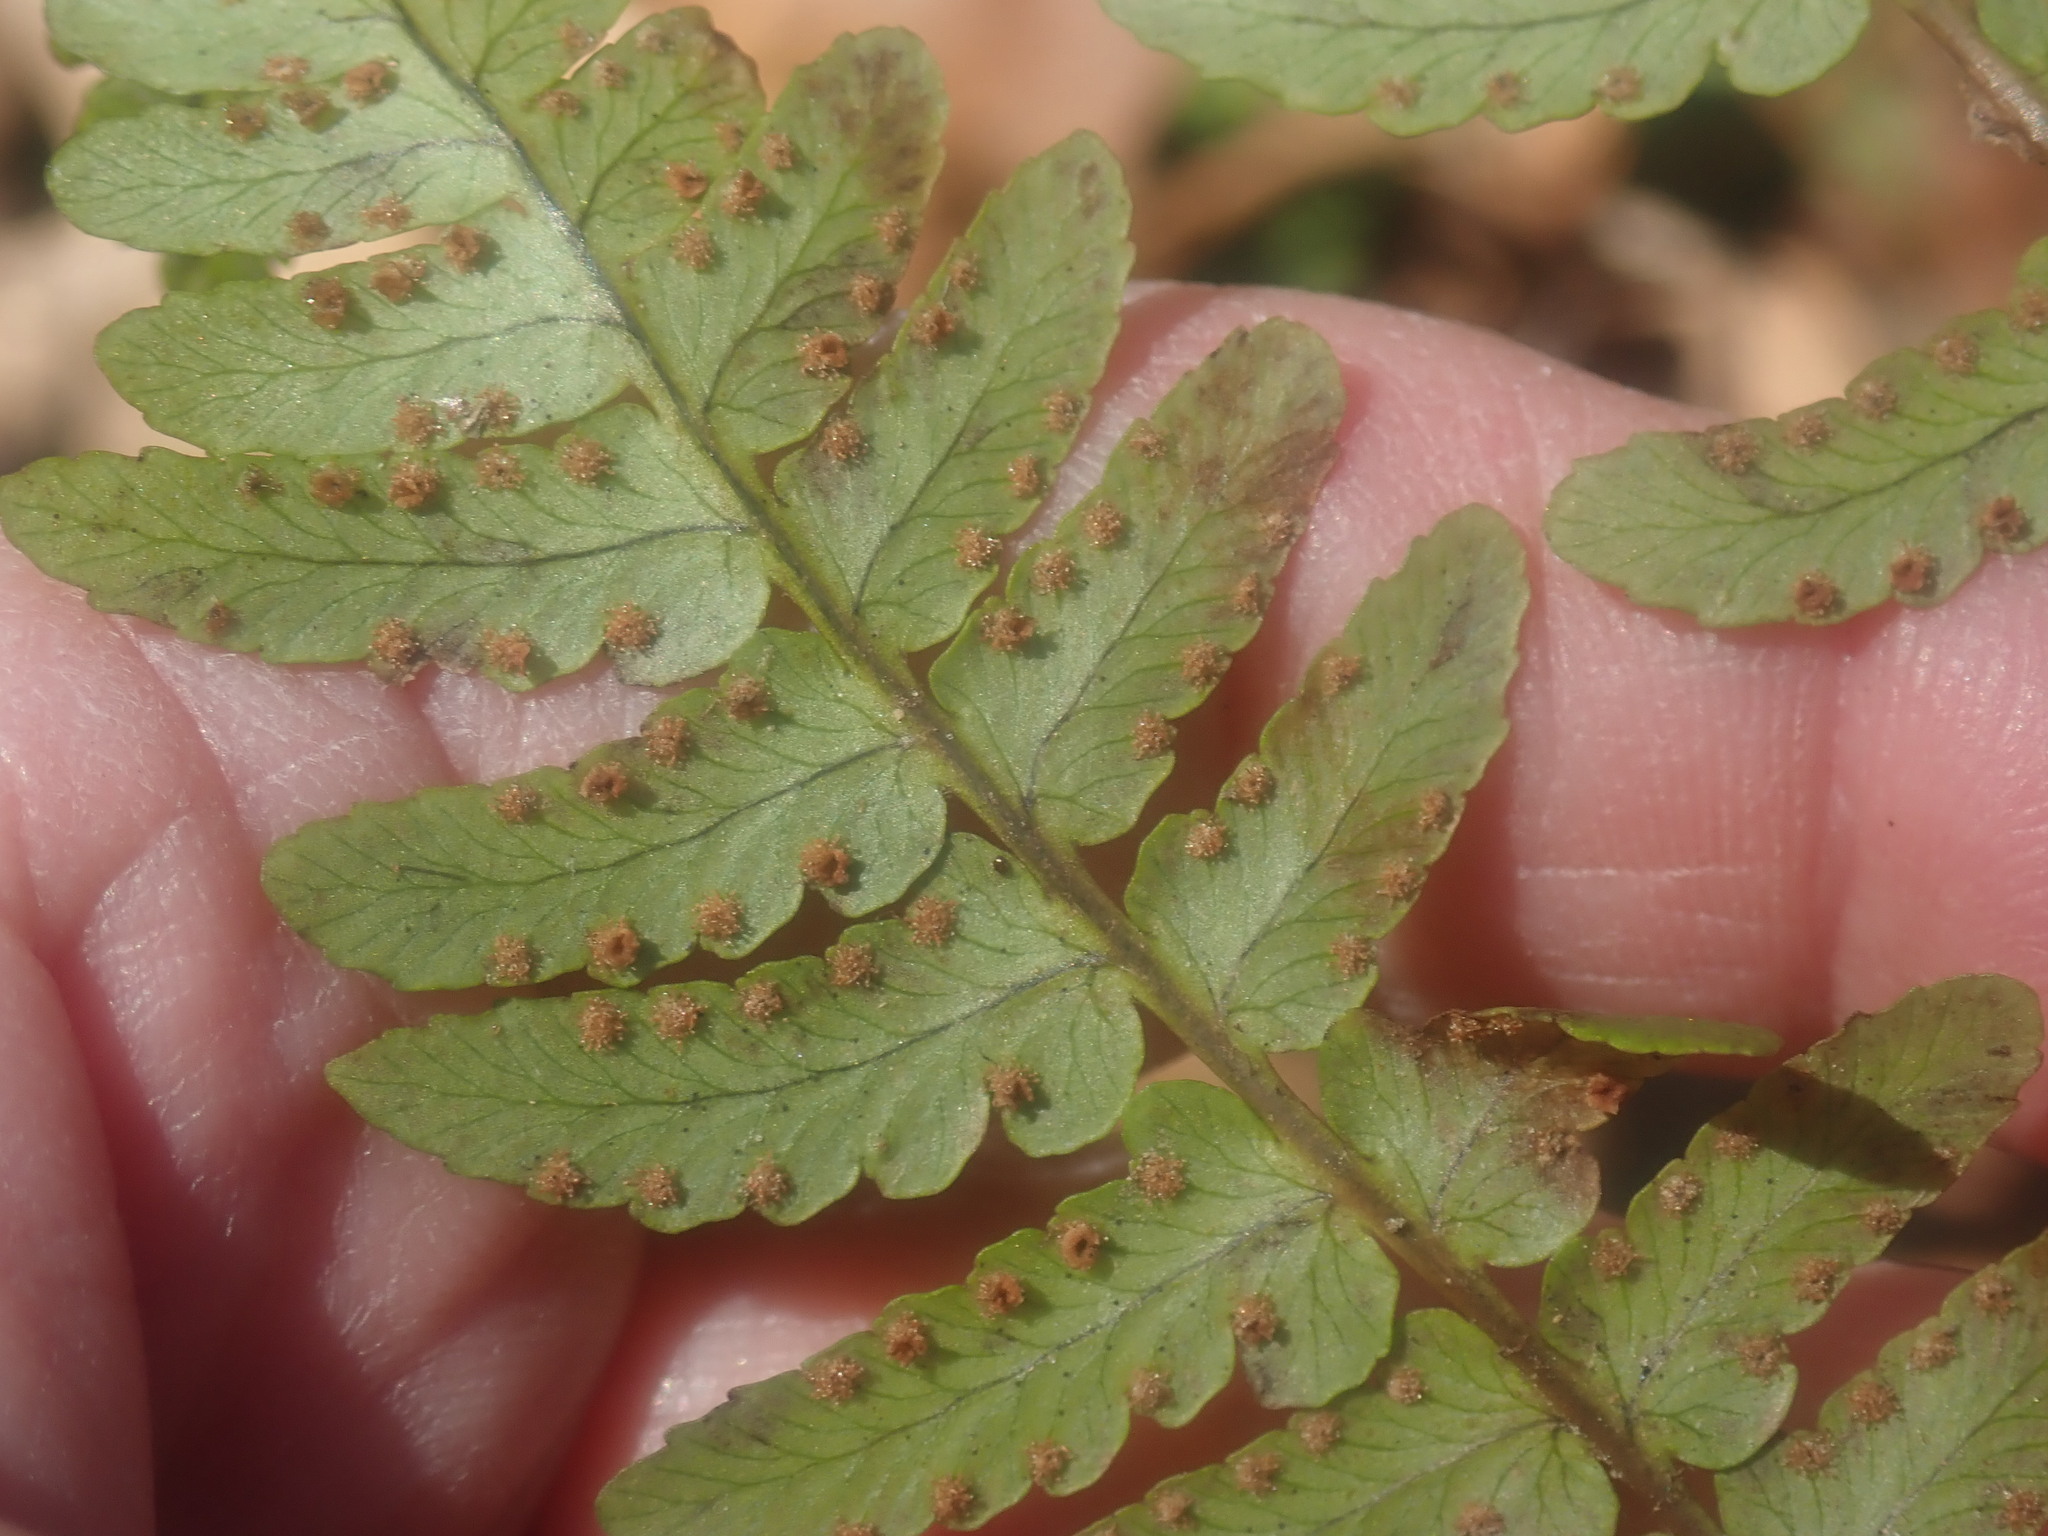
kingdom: Plantae
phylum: Tracheophyta
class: Polypodiopsida
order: Polypodiales
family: Dryopteridaceae
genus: Dryopteris
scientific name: Dryopteris marginalis
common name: Marginal wood fern
